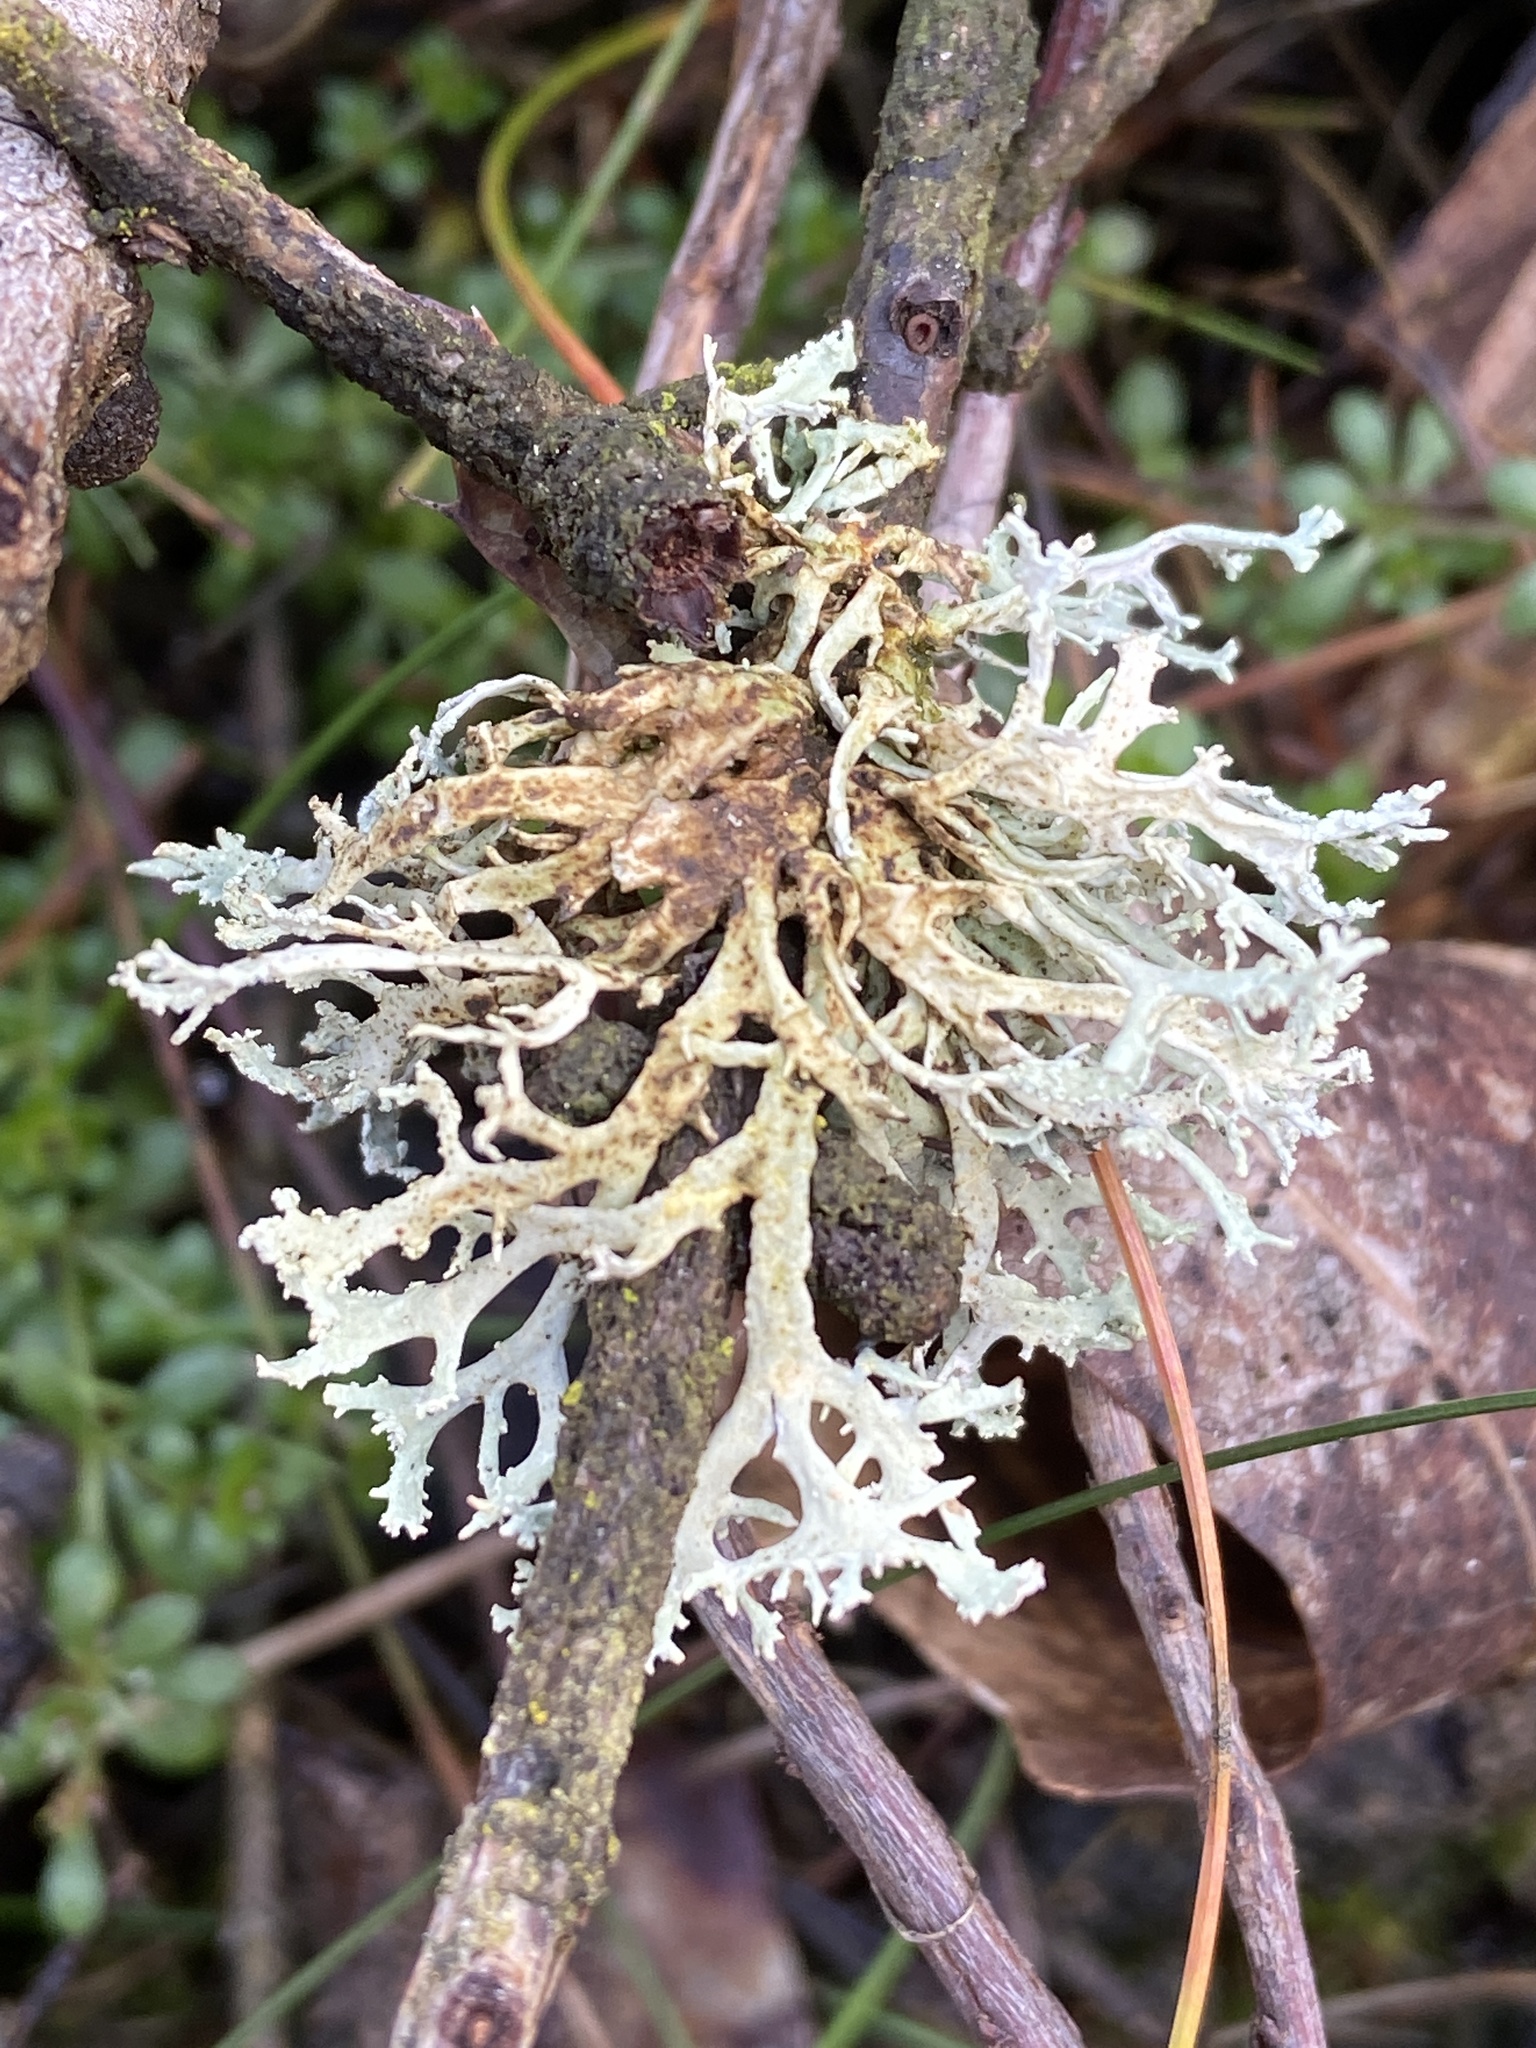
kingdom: Fungi
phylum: Ascomycota
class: Lecanoromycetes
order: Lecanorales
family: Parmeliaceae
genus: Evernia
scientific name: Evernia prunastri
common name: Oak moss
